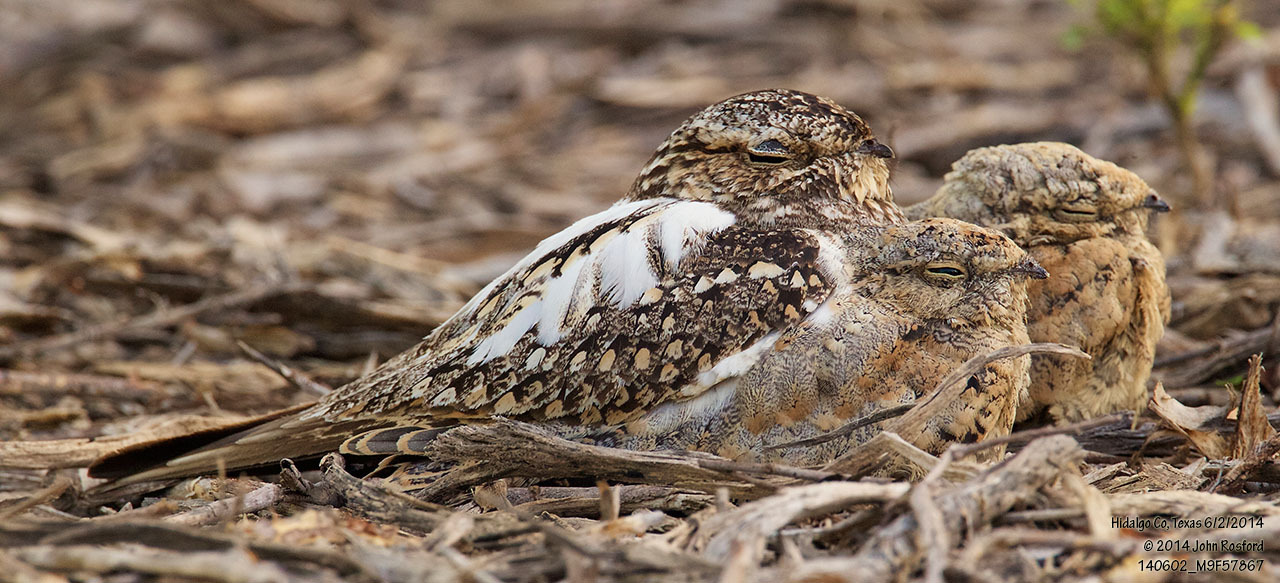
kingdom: Animalia
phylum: Chordata
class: Aves
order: Caprimulgiformes
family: Caprimulgidae
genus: Chordeiles
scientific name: Chordeiles acutipennis
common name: Lesser nighthawk
